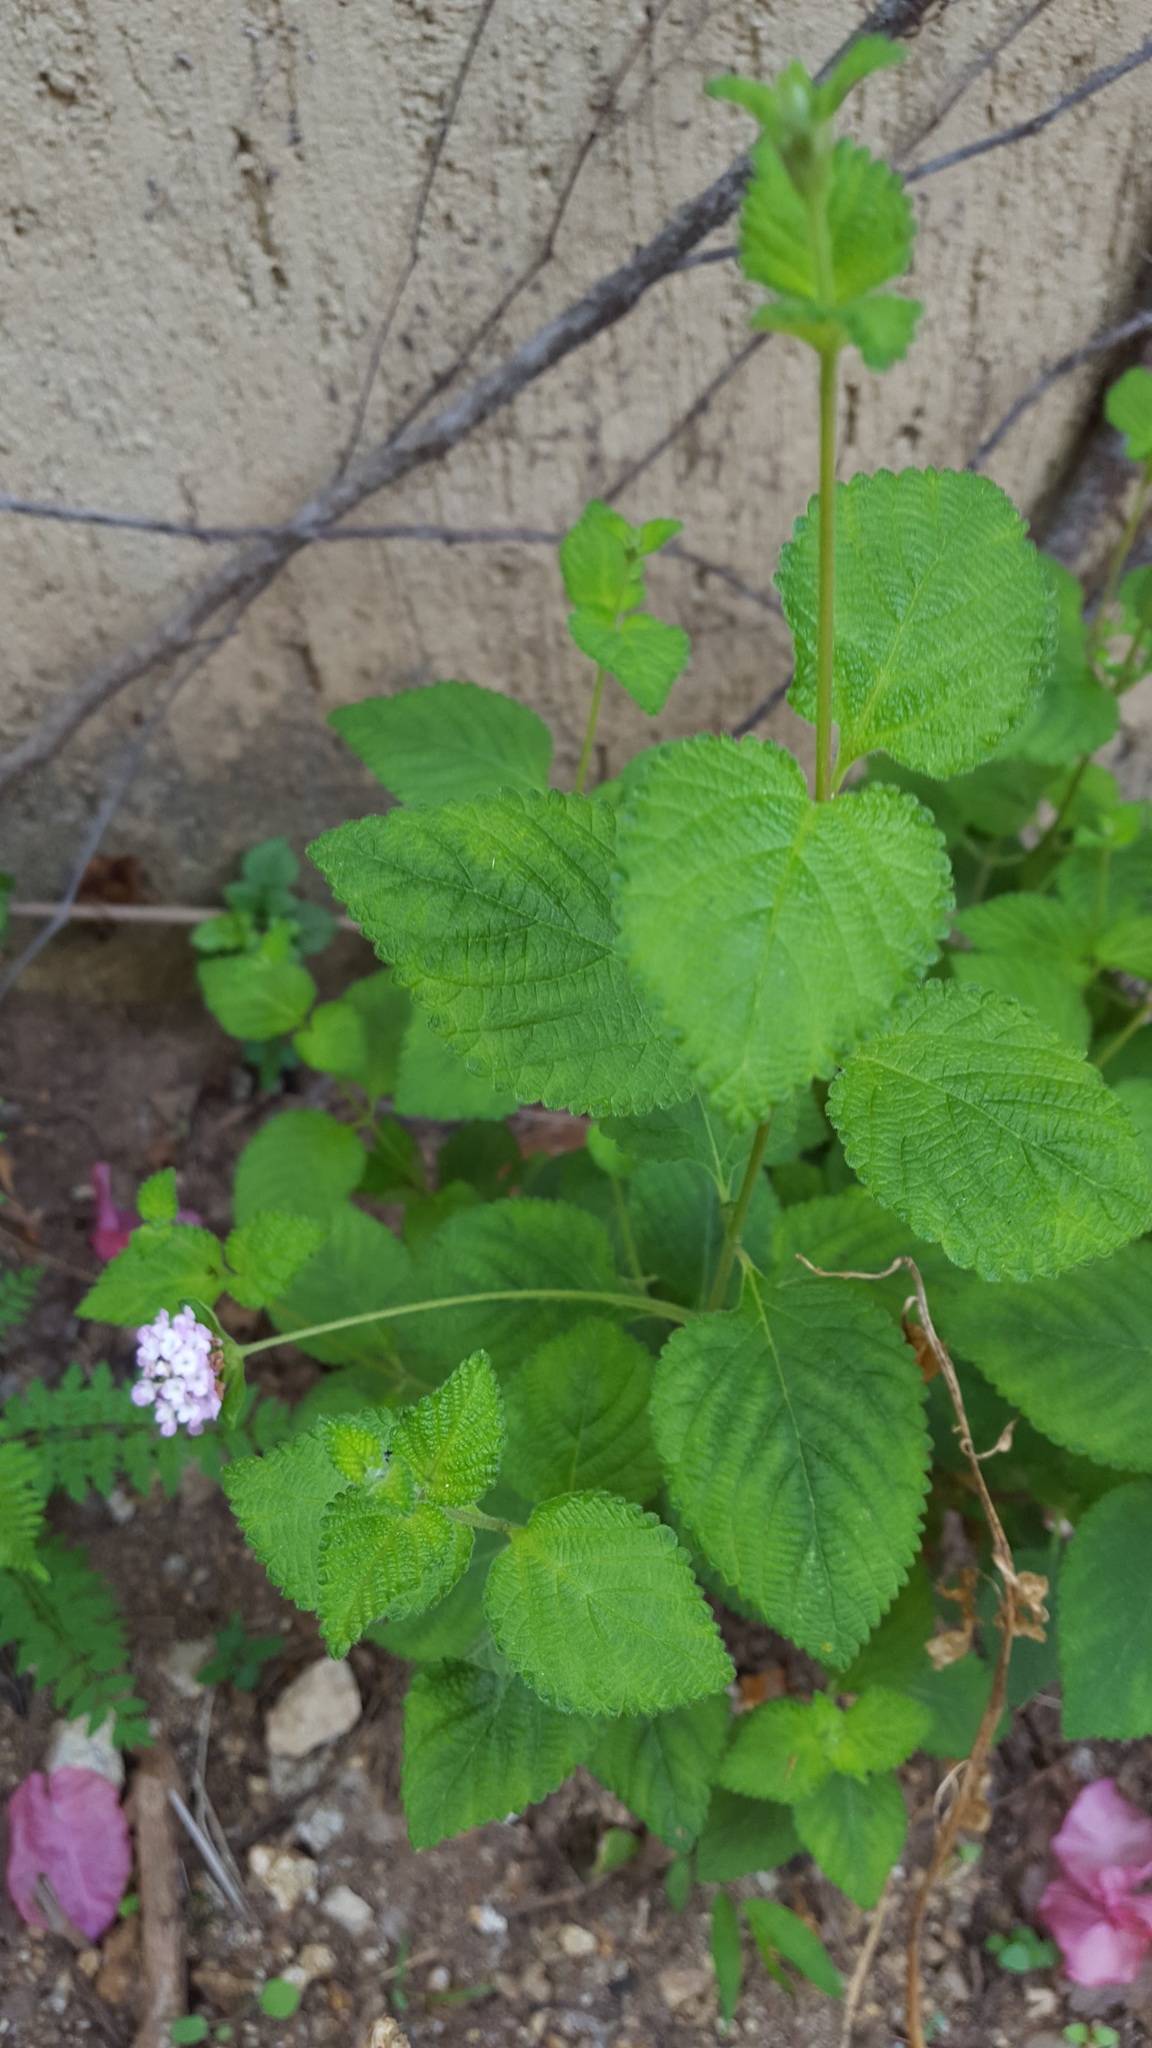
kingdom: Plantae
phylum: Tracheophyta
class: Magnoliopsida
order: Lamiales
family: Verbenaceae
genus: Lantana
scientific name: Lantana velutina
